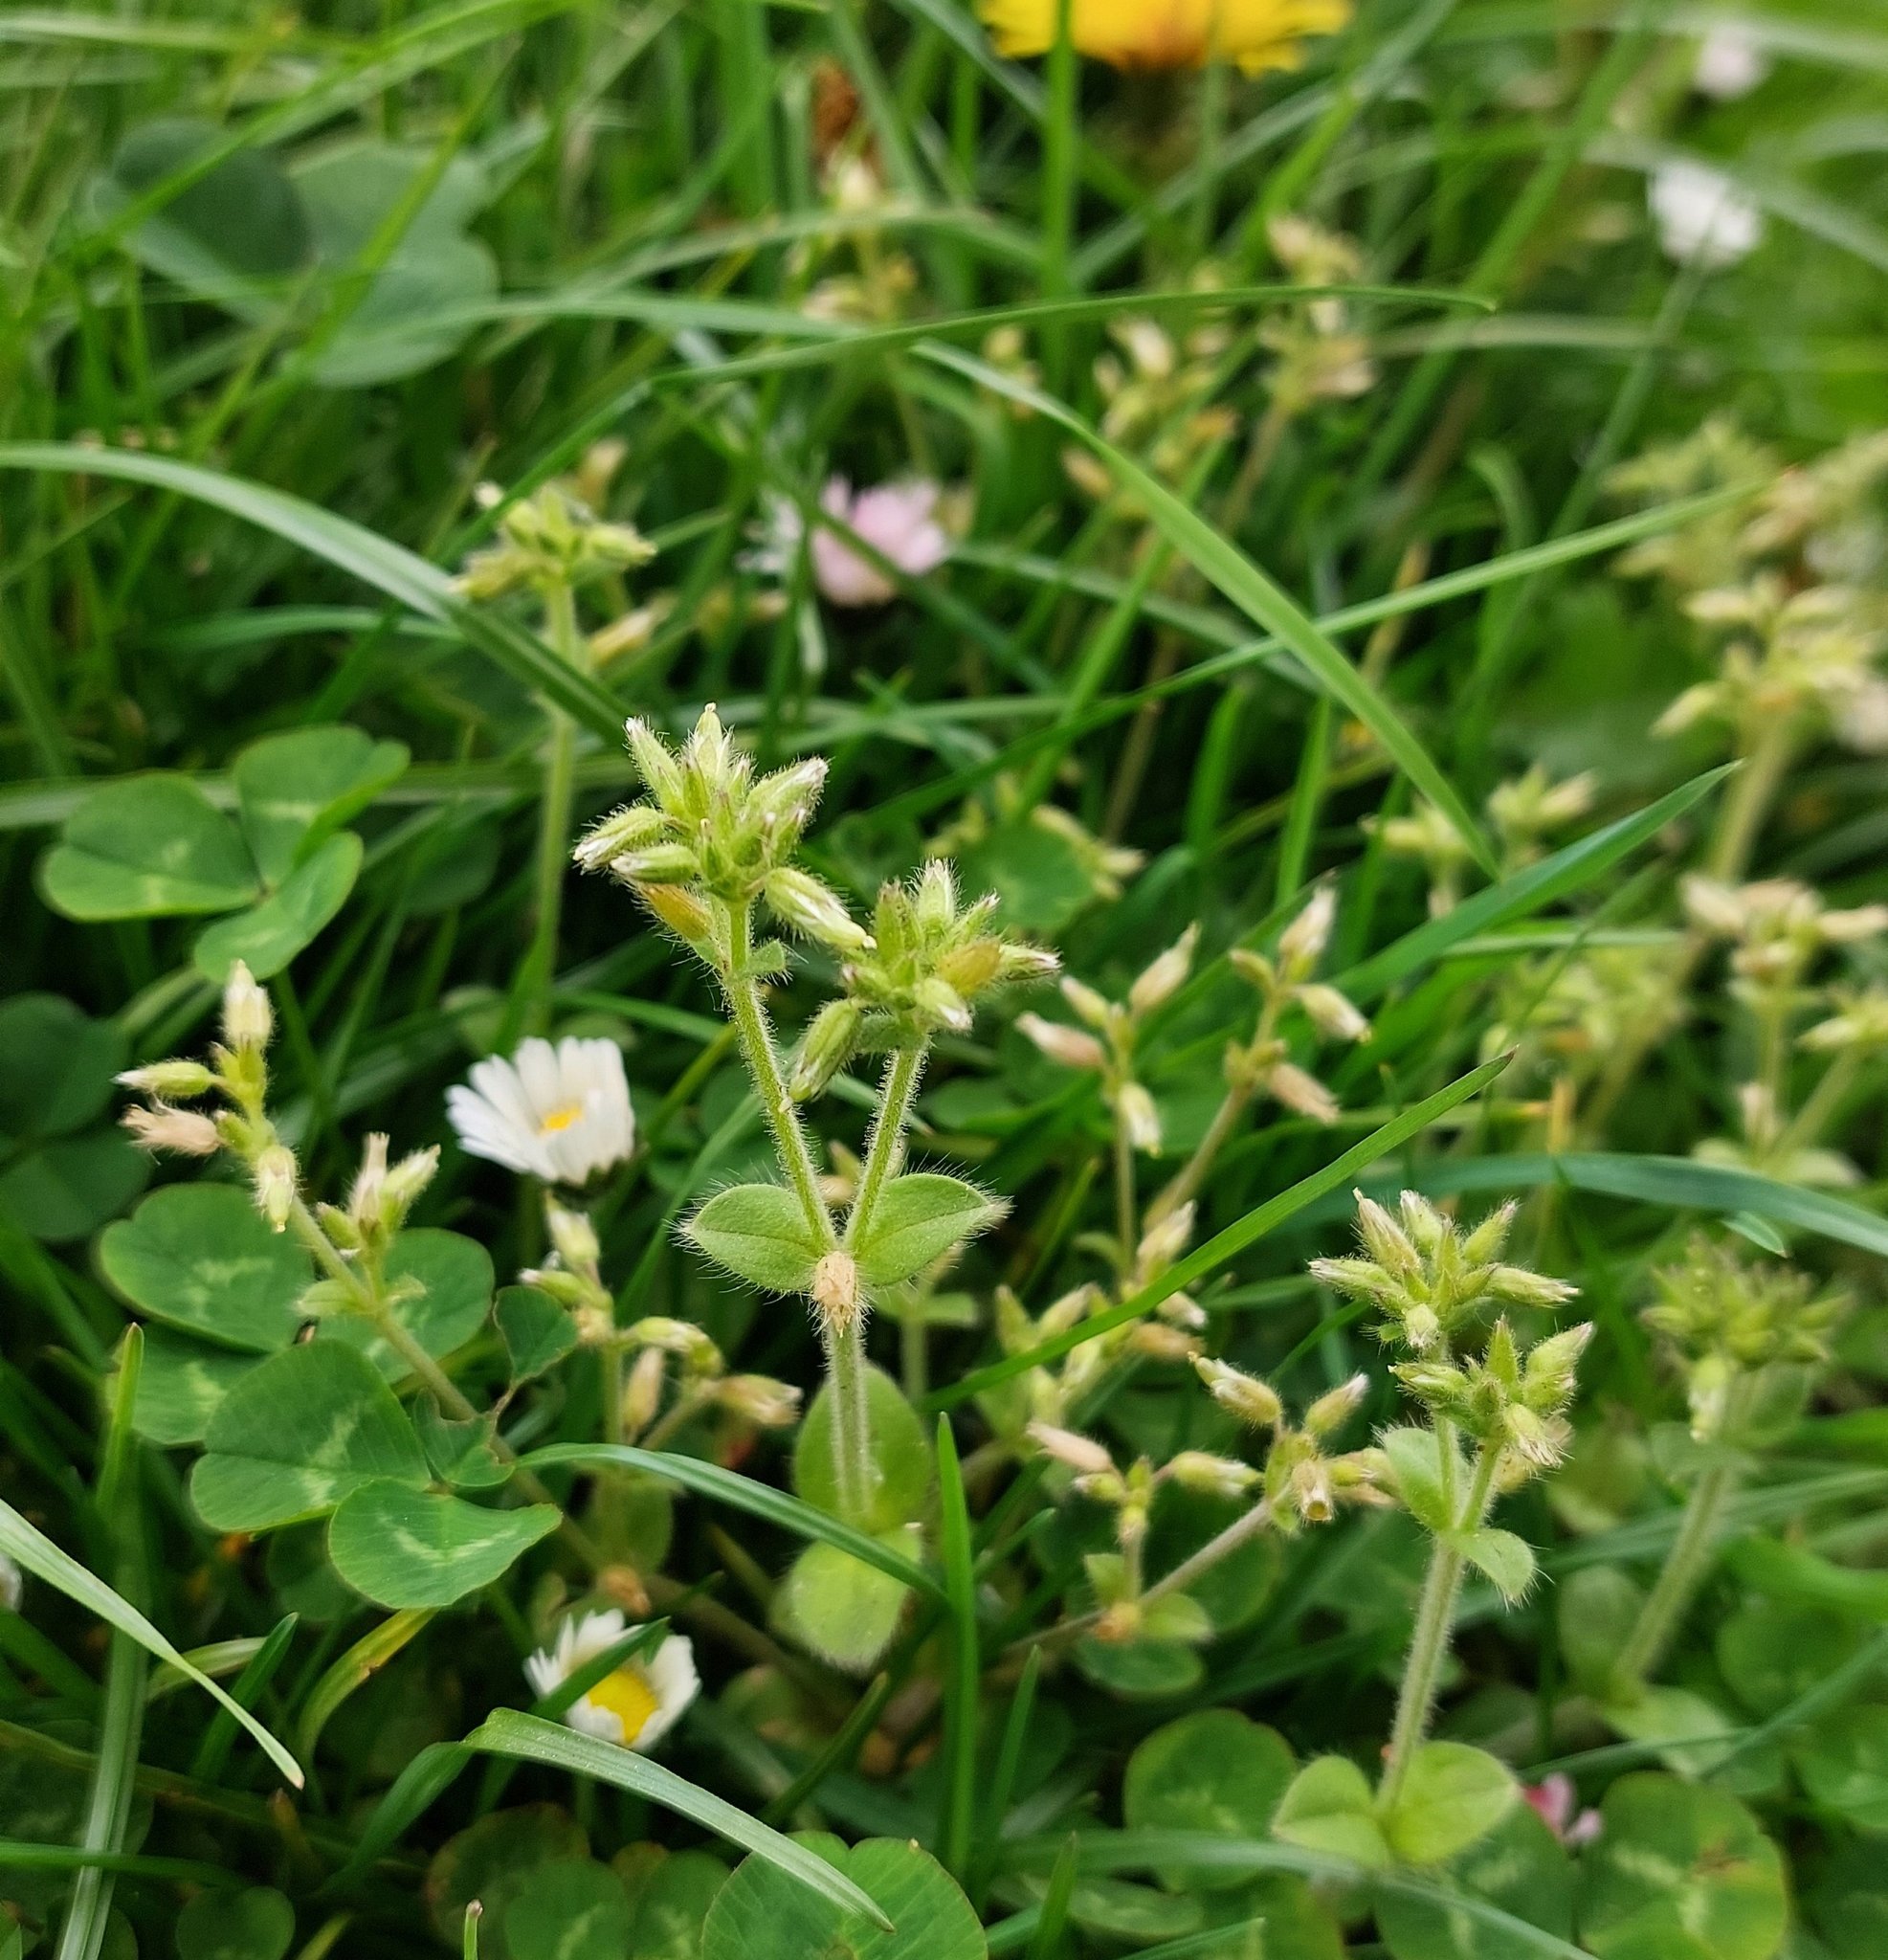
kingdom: Plantae
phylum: Tracheophyta
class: Magnoliopsida
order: Caryophyllales
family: Caryophyllaceae
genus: Cerastium
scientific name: Cerastium glomeratum
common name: Sticky chickweed
